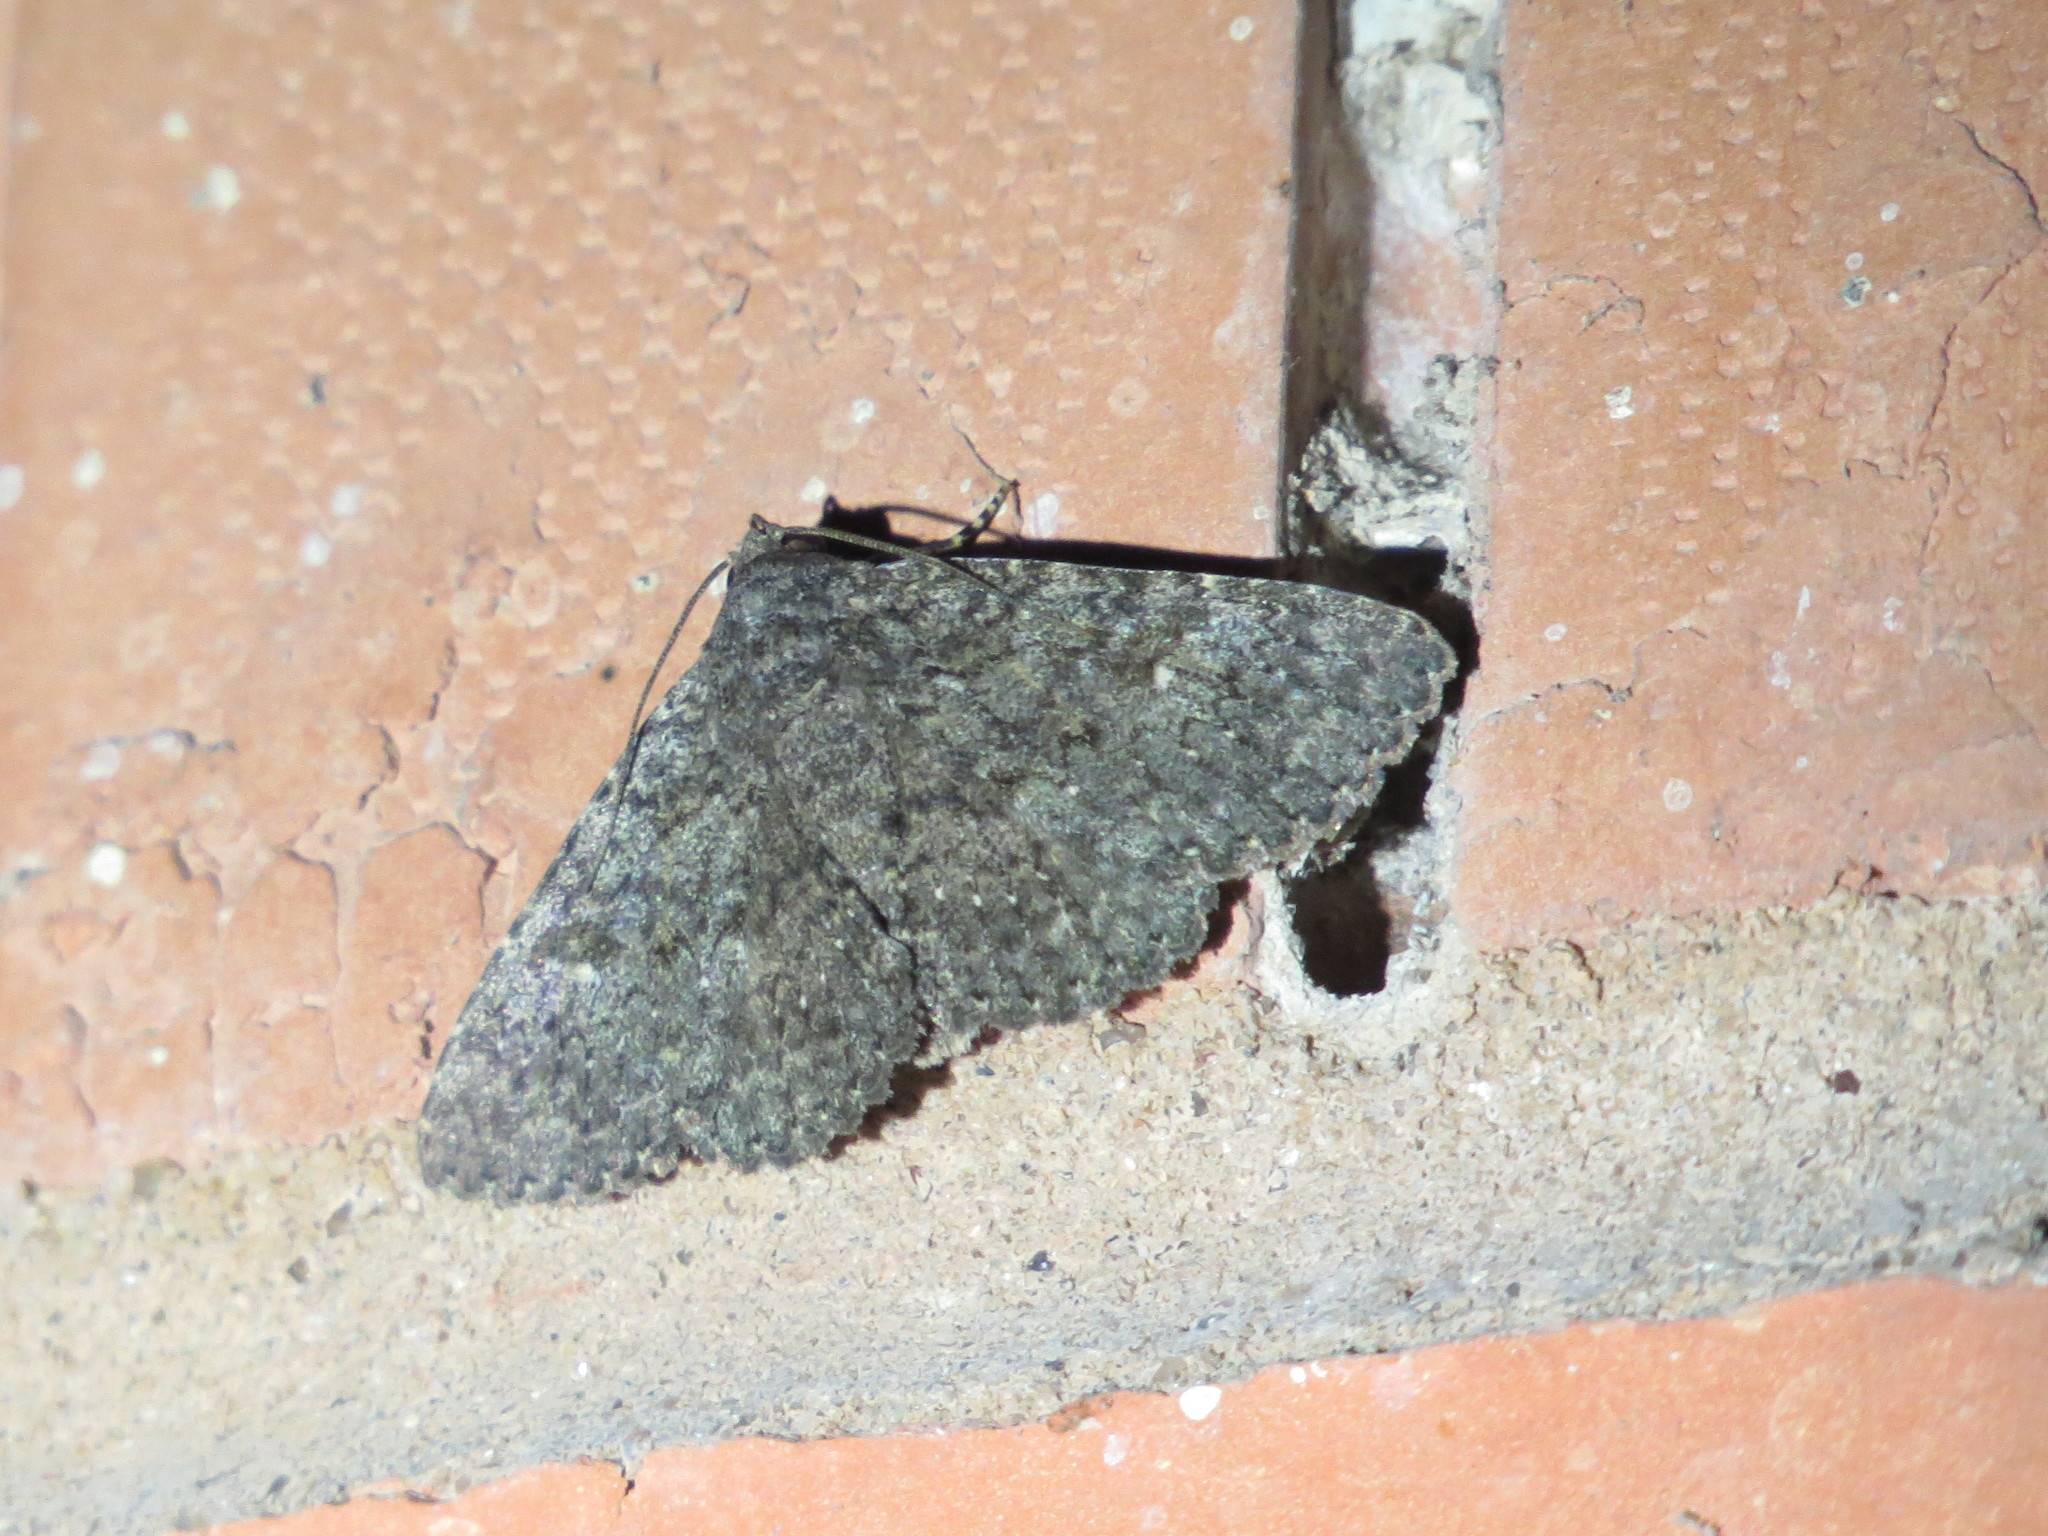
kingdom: Animalia
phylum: Arthropoda
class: Insecta
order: Lepidoptera
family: Erebidae
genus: Matigramma
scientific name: Matigramma obscurior
